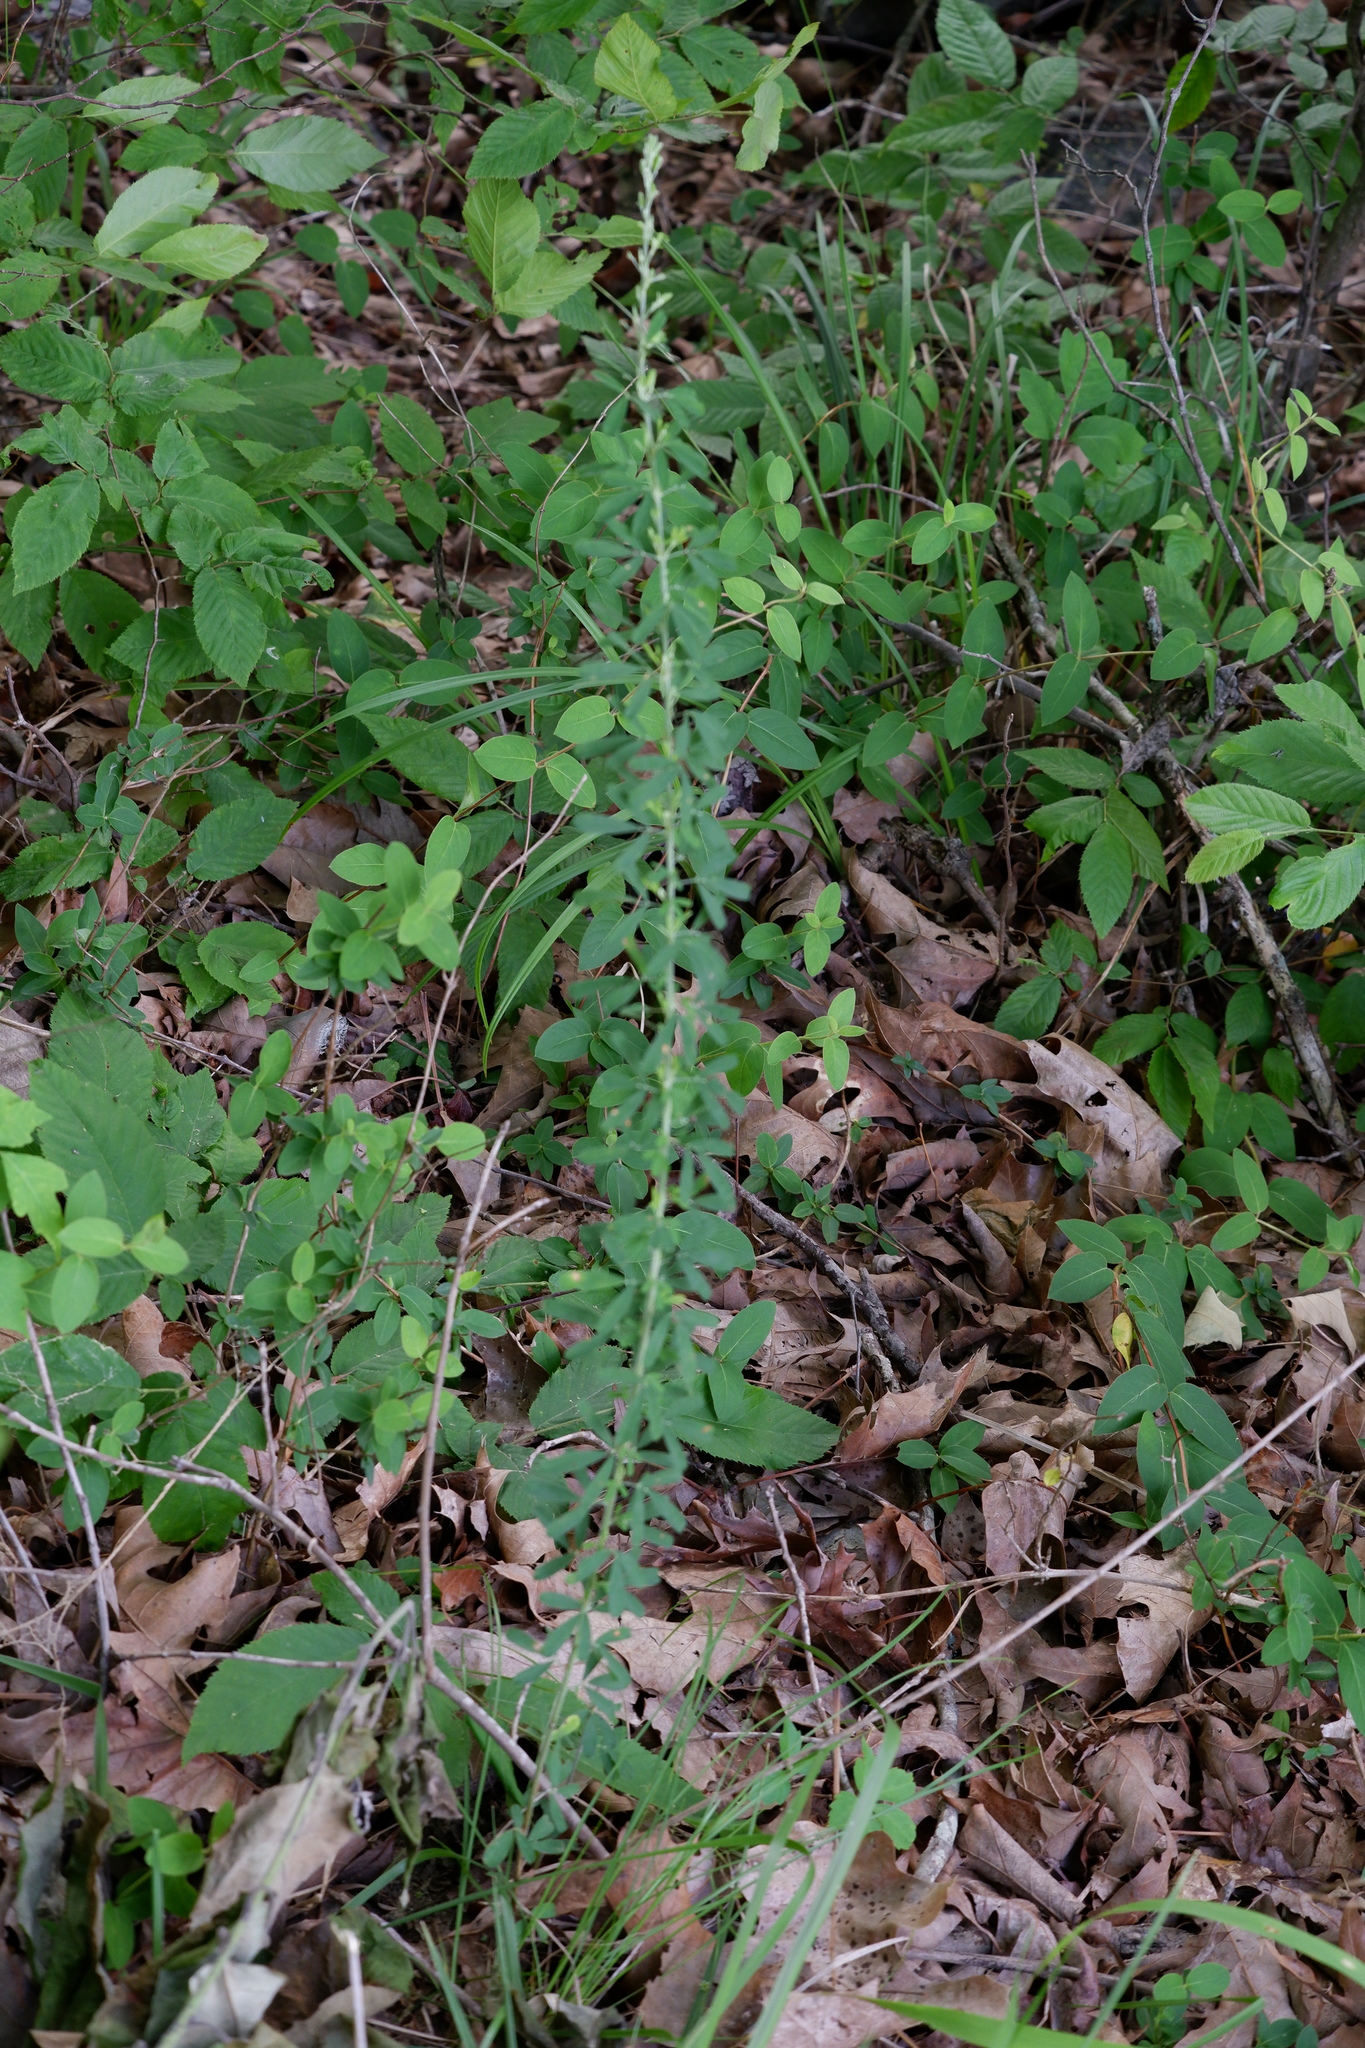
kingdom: Plantae
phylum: Tracheophyta
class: Magnoliopsida
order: Fabales
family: Fabaceae
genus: Lespedeza
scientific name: Lespedeza cuneata
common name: Chinese bush-clover
